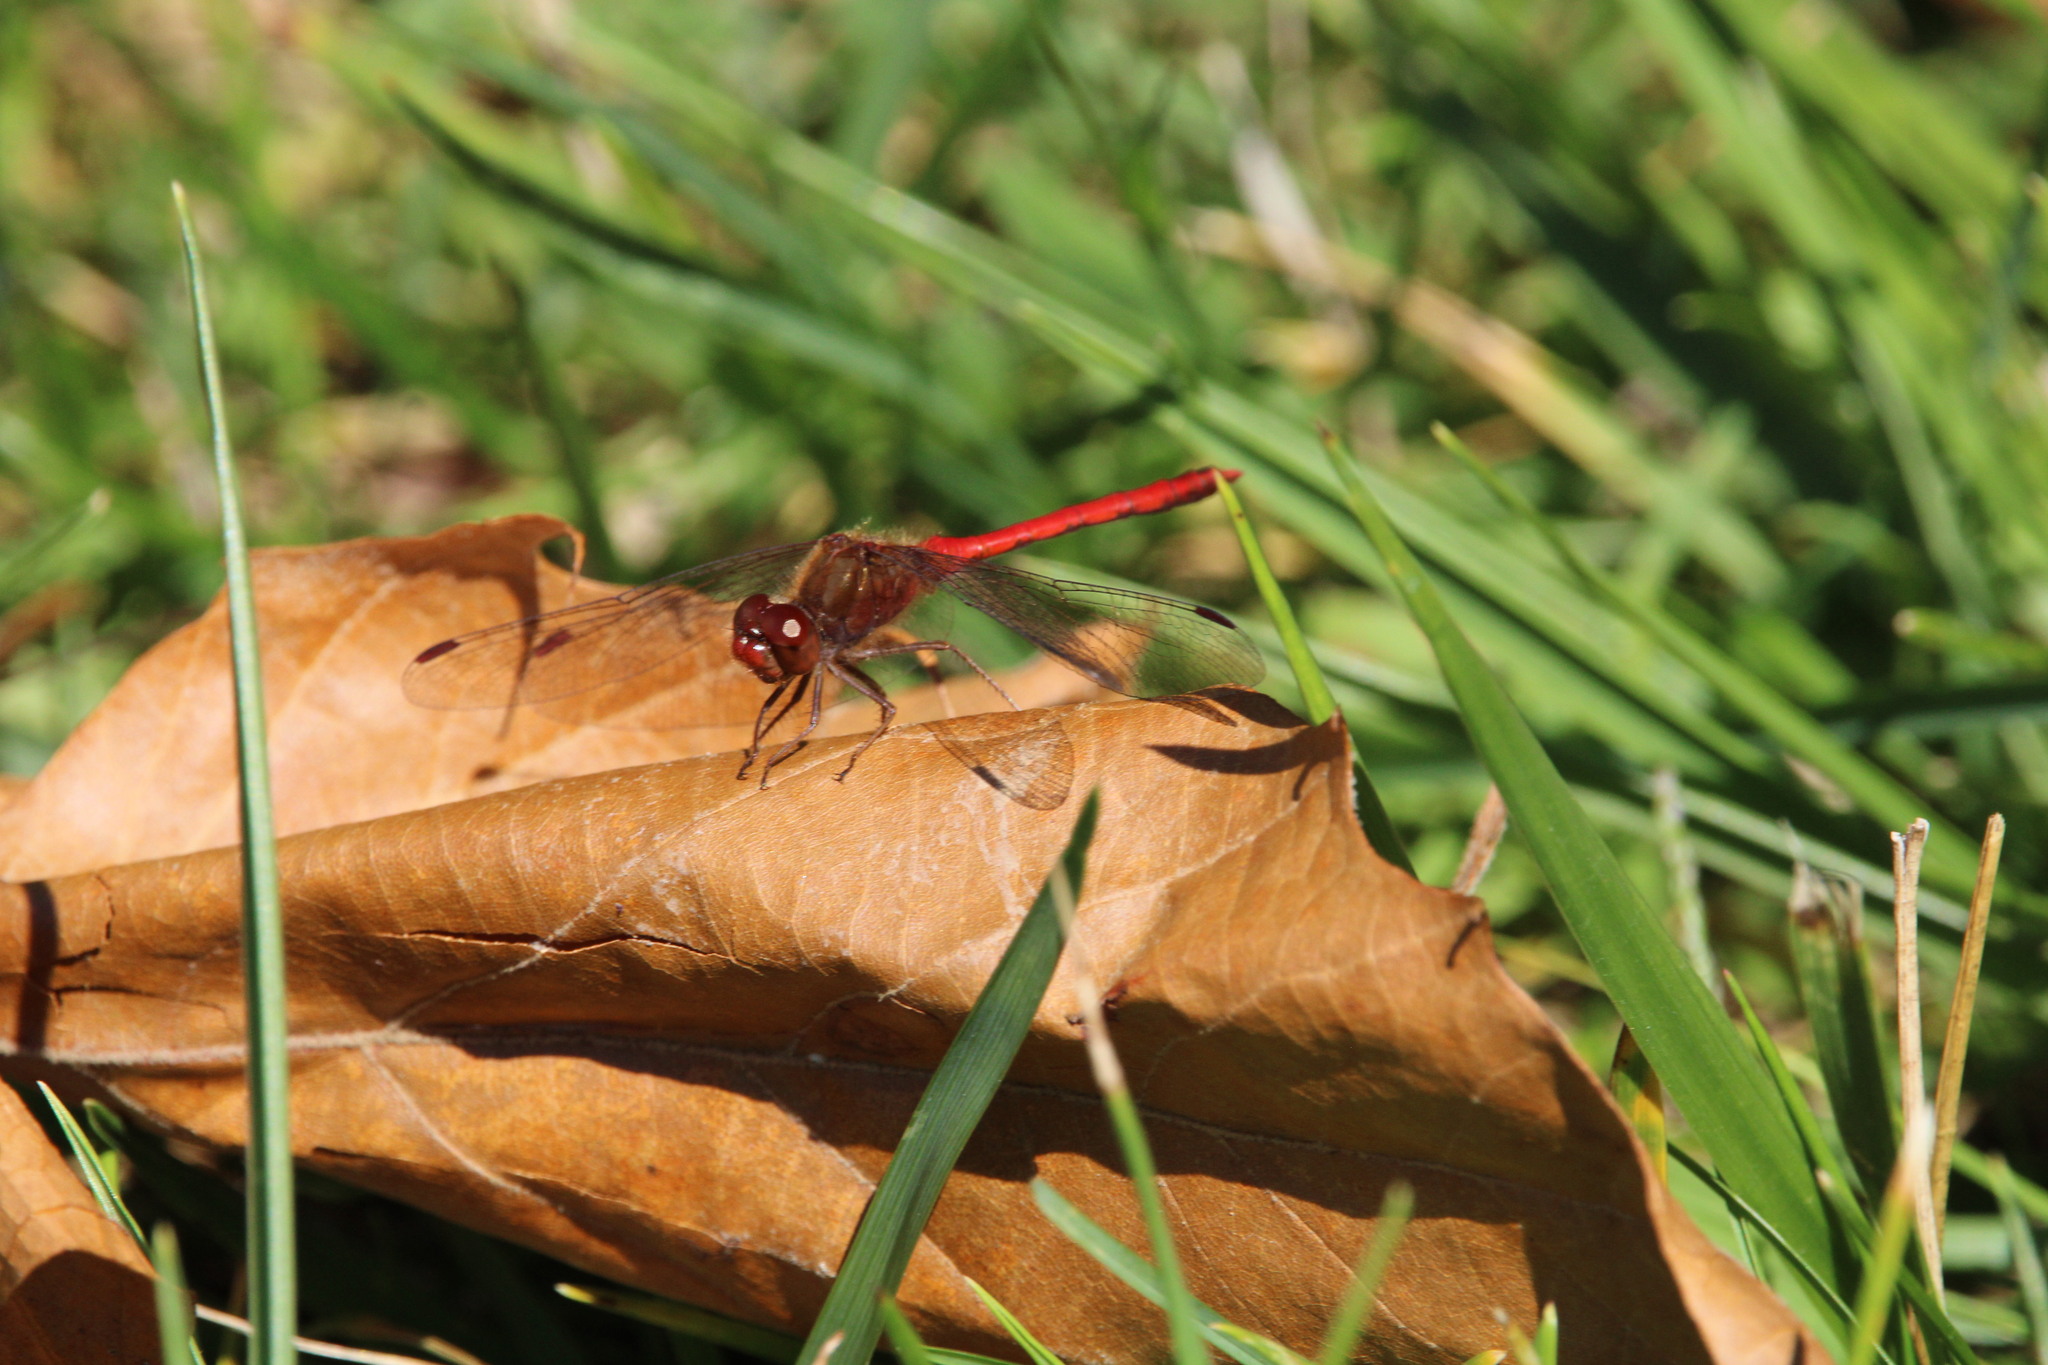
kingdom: Animalia
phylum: Arthropoda
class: Insecta
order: Odonata
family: Libellulidae
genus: Sympetrum
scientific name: Sympetrum vicinum
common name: Autumn meadowhawk
